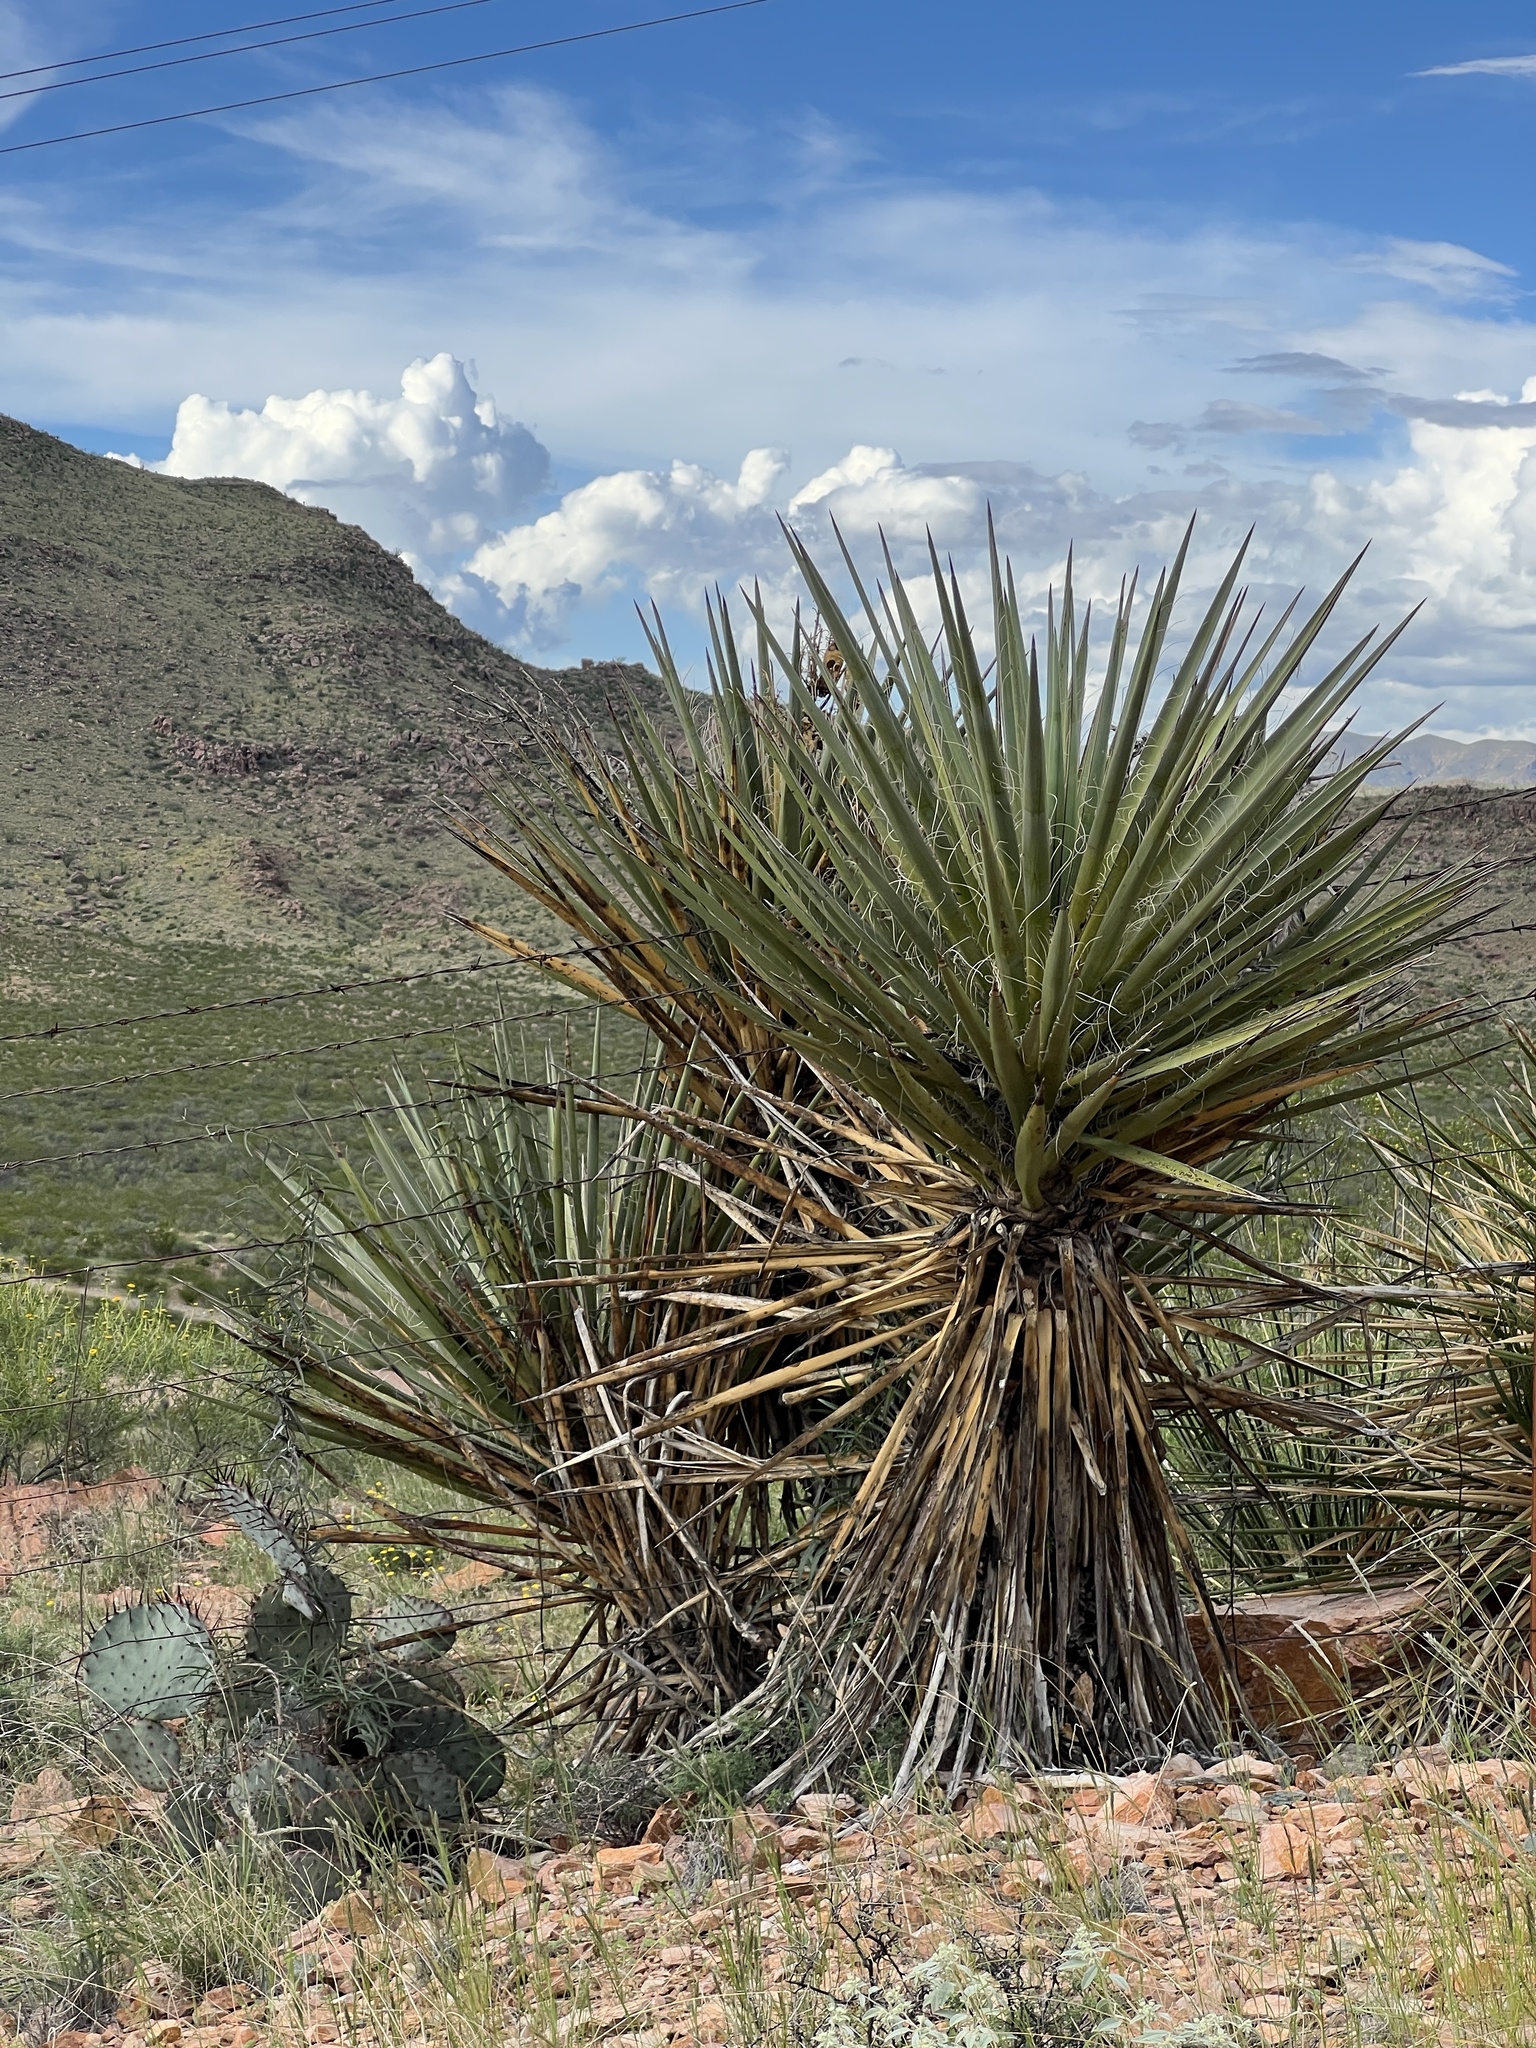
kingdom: Plantae
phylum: Tracheophyta
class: Liliopsida
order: Asparagales
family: Asparagaceae
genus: Yucca
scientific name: Yucca treculiana
